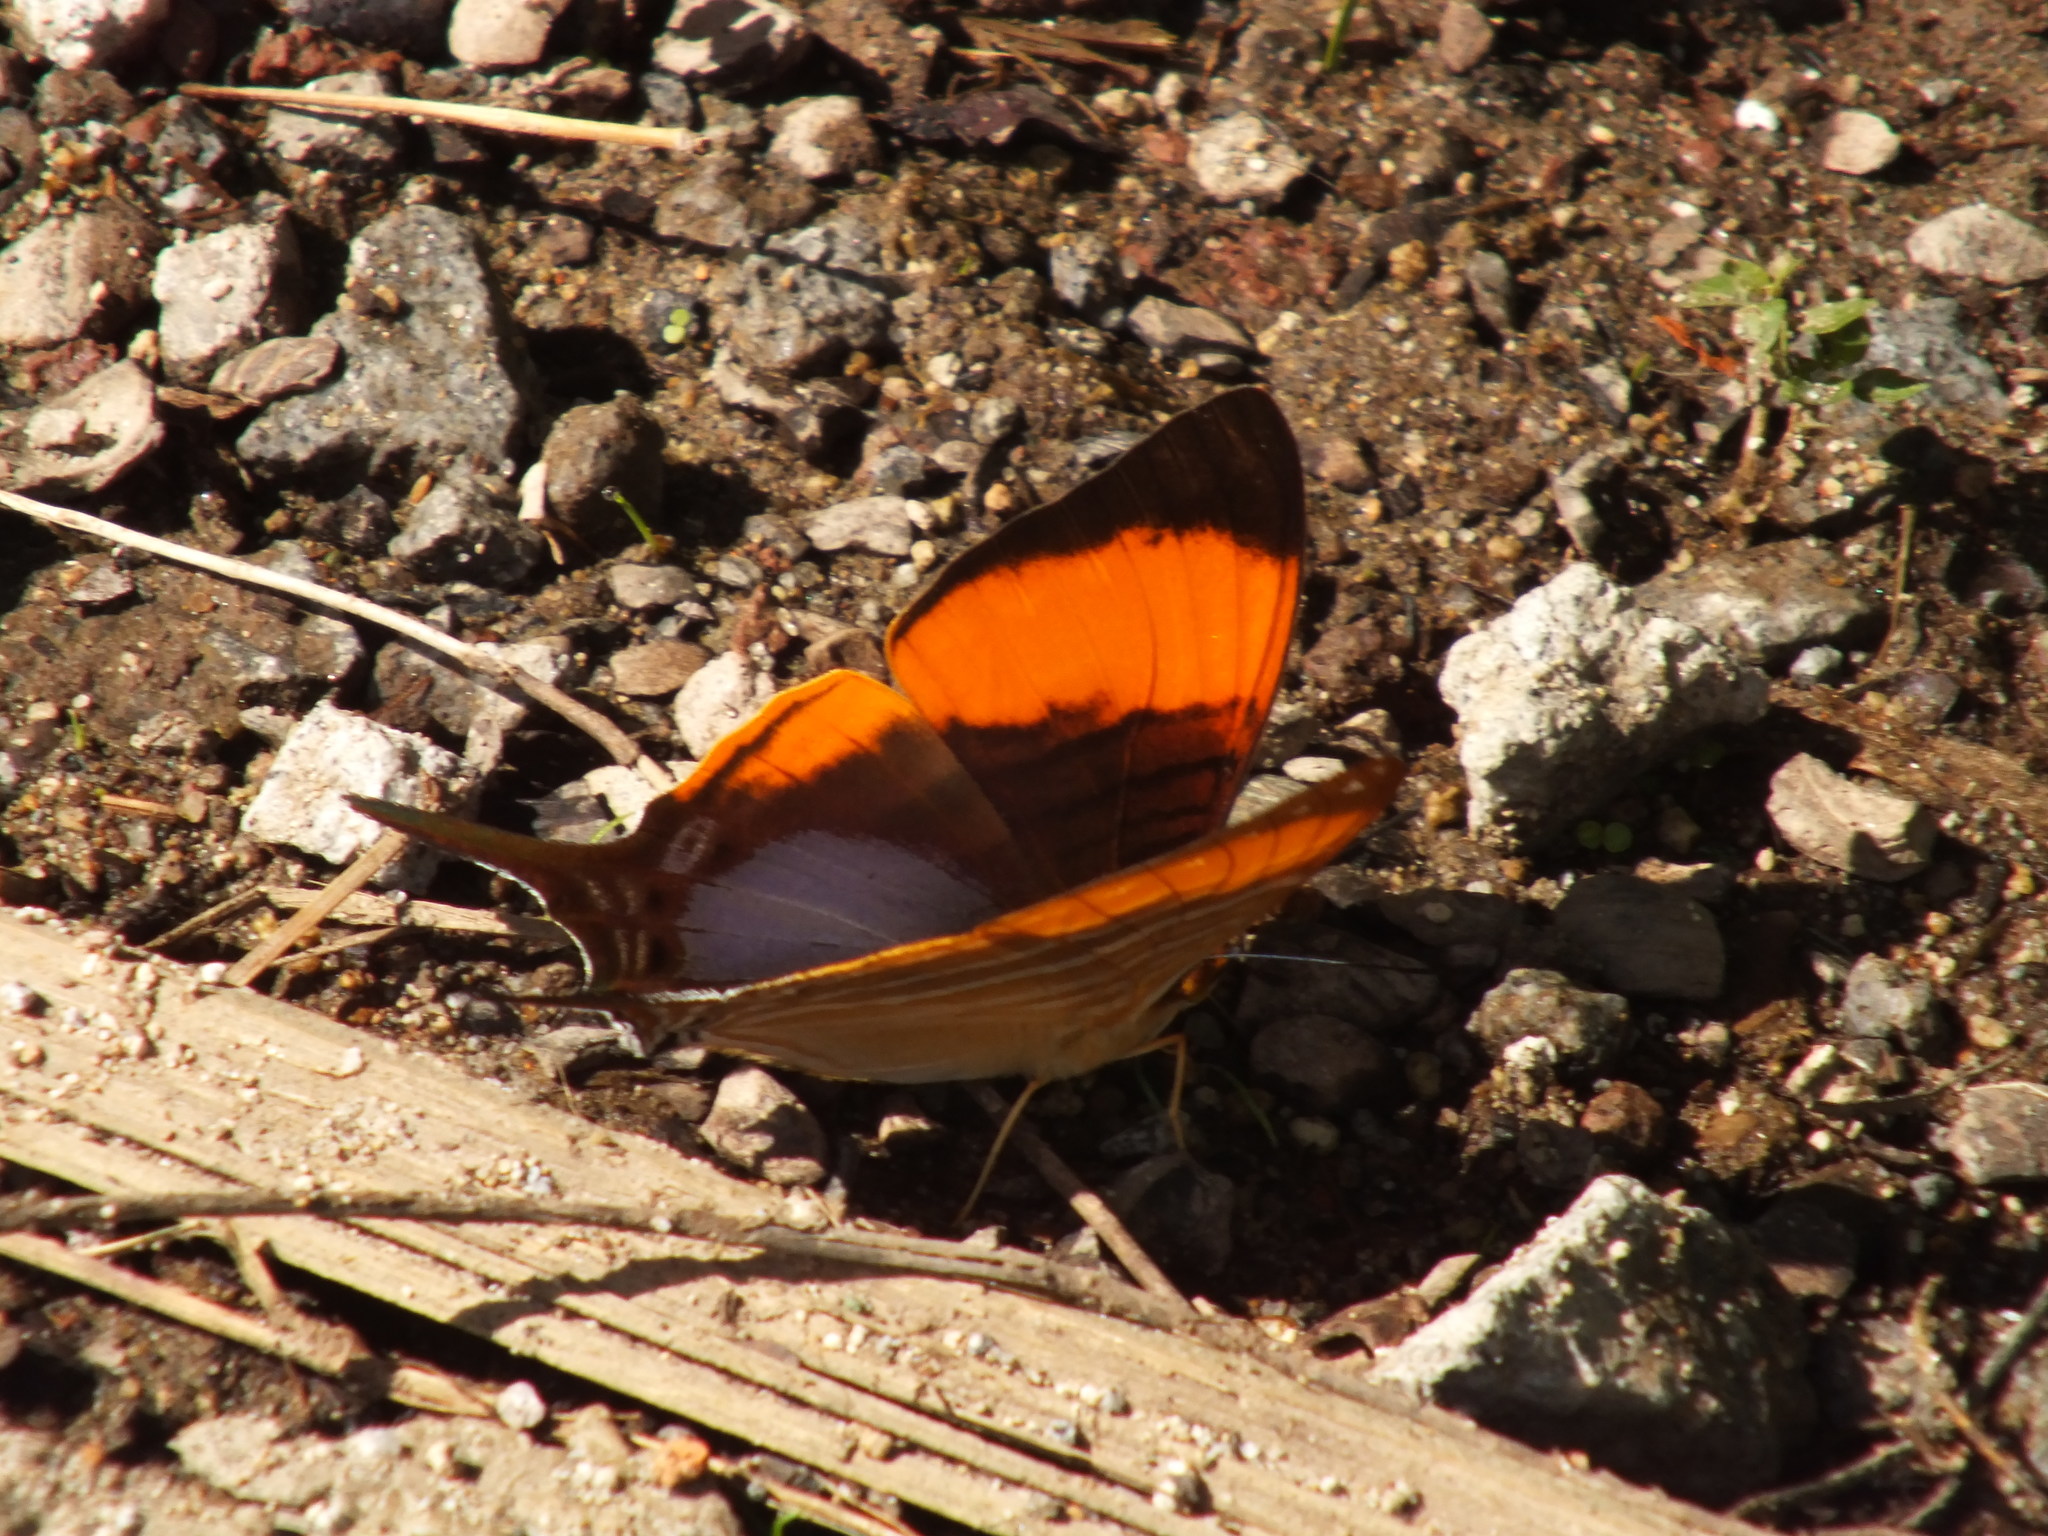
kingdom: Animalia
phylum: Arthropoda
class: Insecta
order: Lepidoptera
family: Nymphalidae
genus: Marpesia
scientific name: Marpesia marcella
